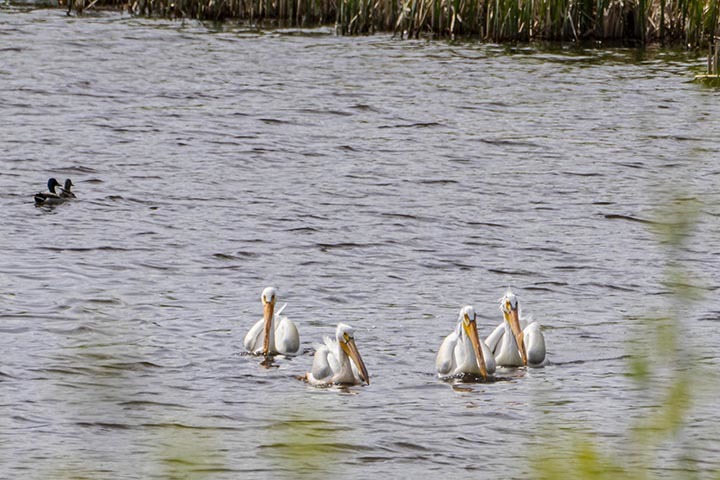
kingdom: Animalia
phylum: Chordata
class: Aves
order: Pelecaniformes
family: Pelecanidae
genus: Pelecanus
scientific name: Pelecanus erythrorhynchos
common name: American white pelican
